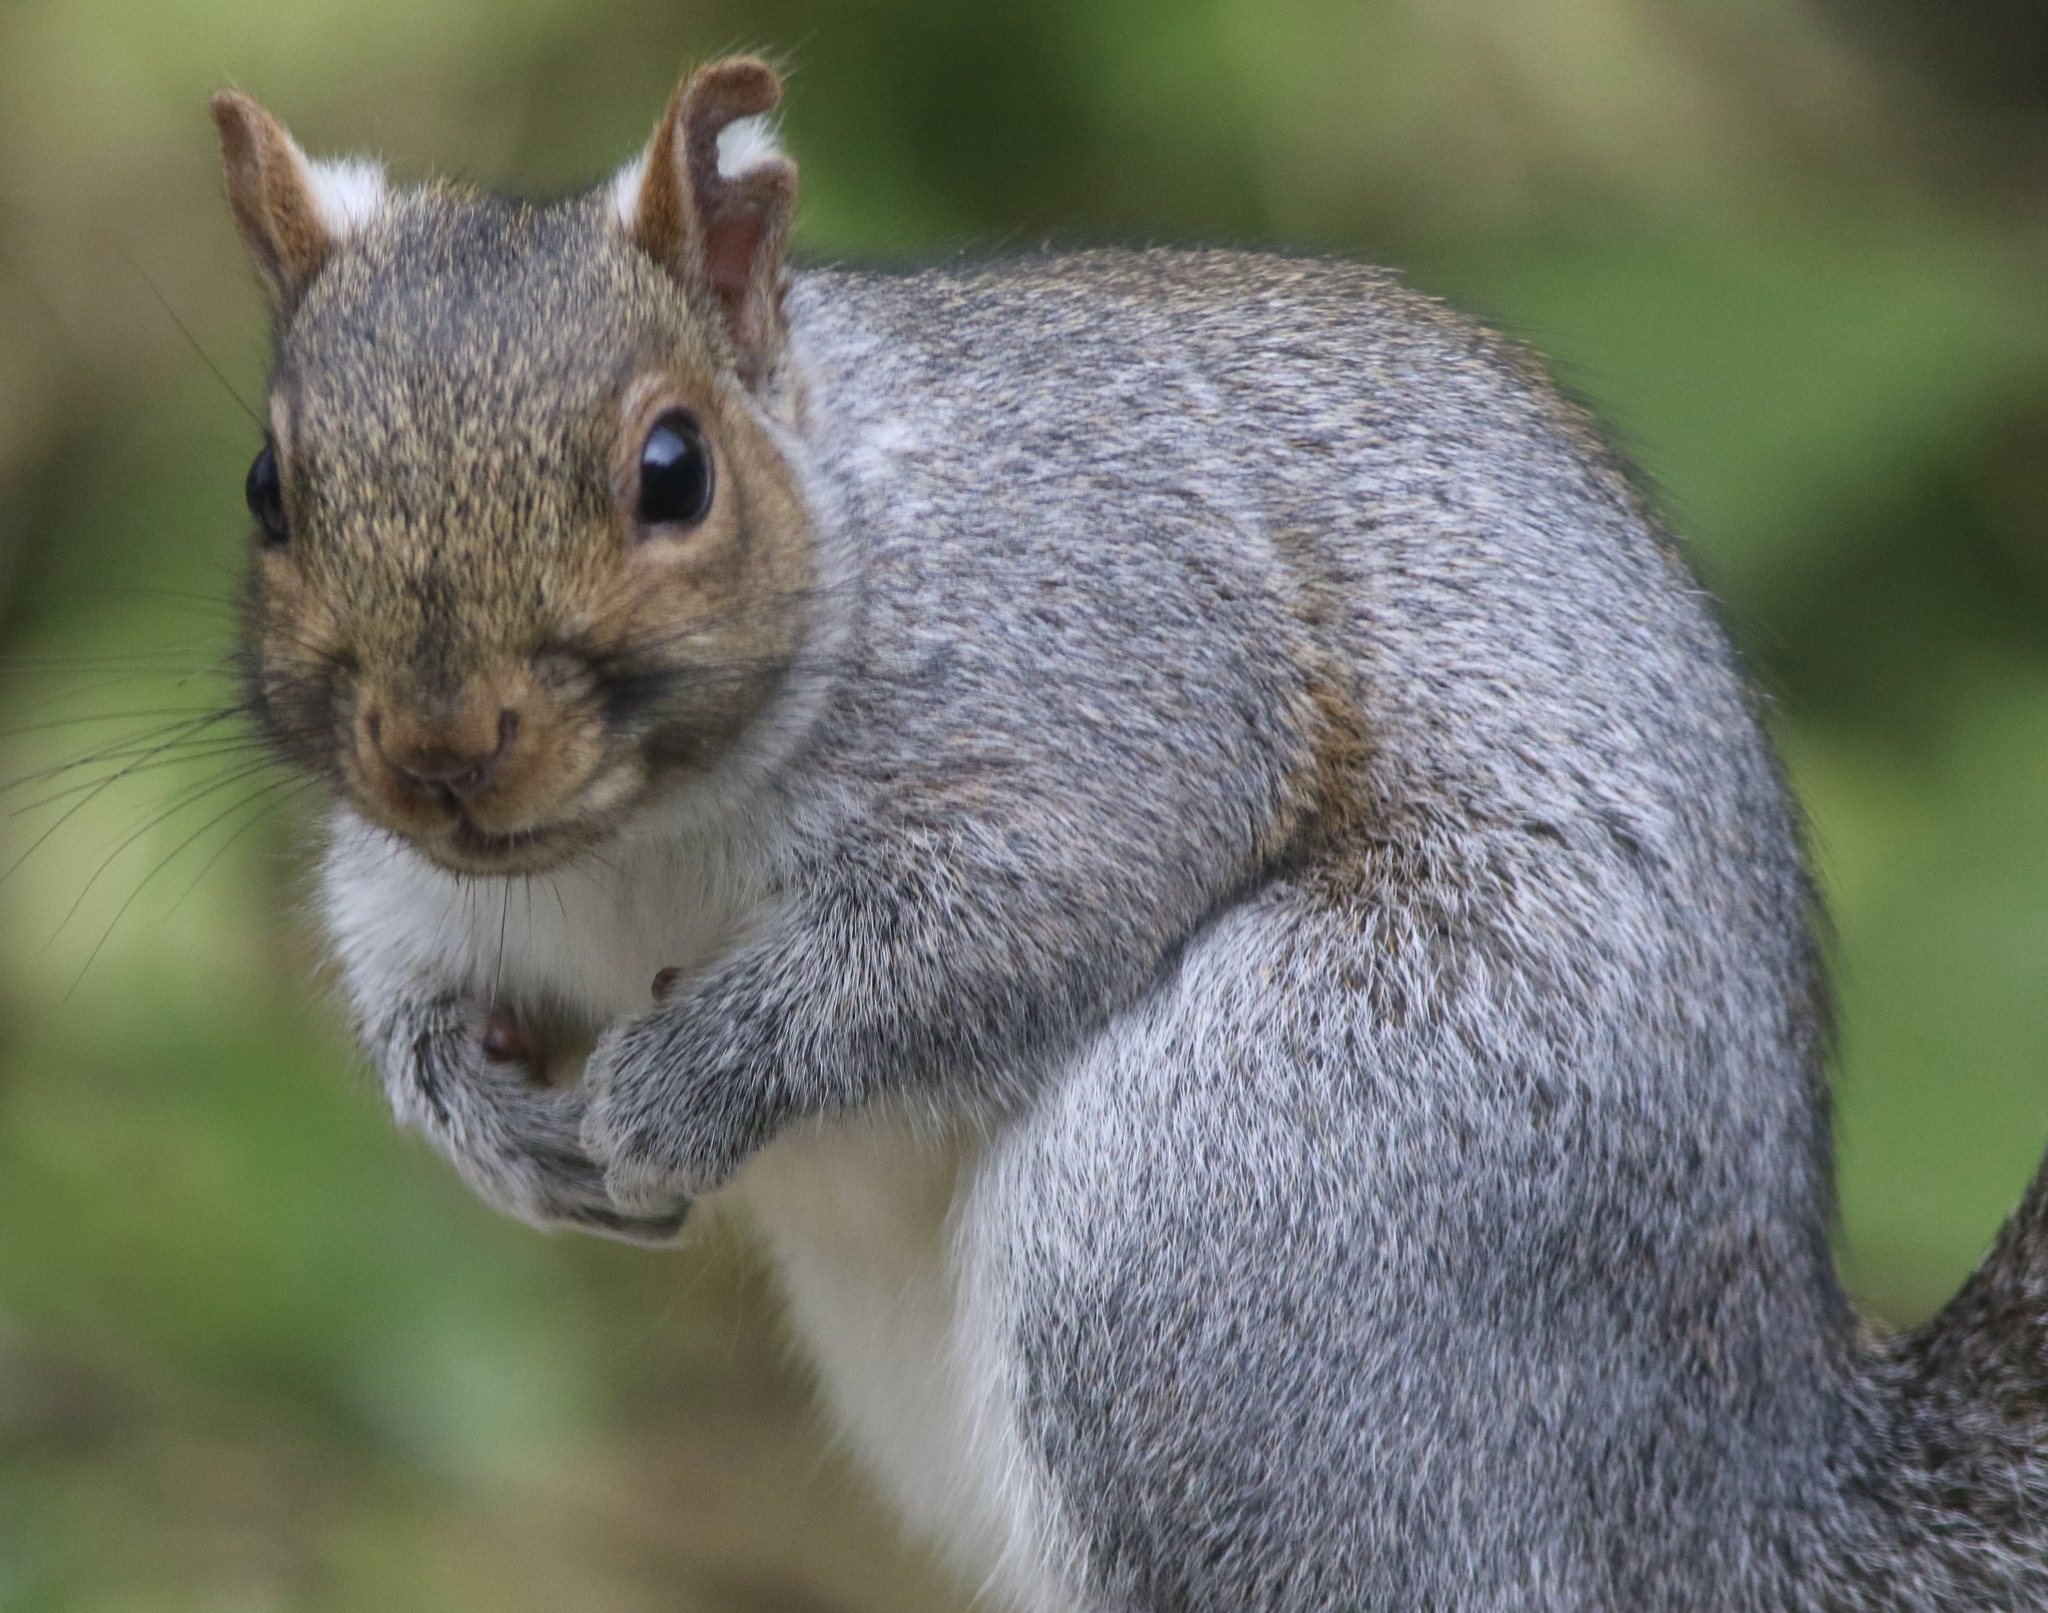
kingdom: Animalia
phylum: Chordata
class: Mammalia
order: Rodentia
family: Sciuridae
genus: Sciurus
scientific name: Sciurus carolinensis
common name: Eastern gray squirrel
